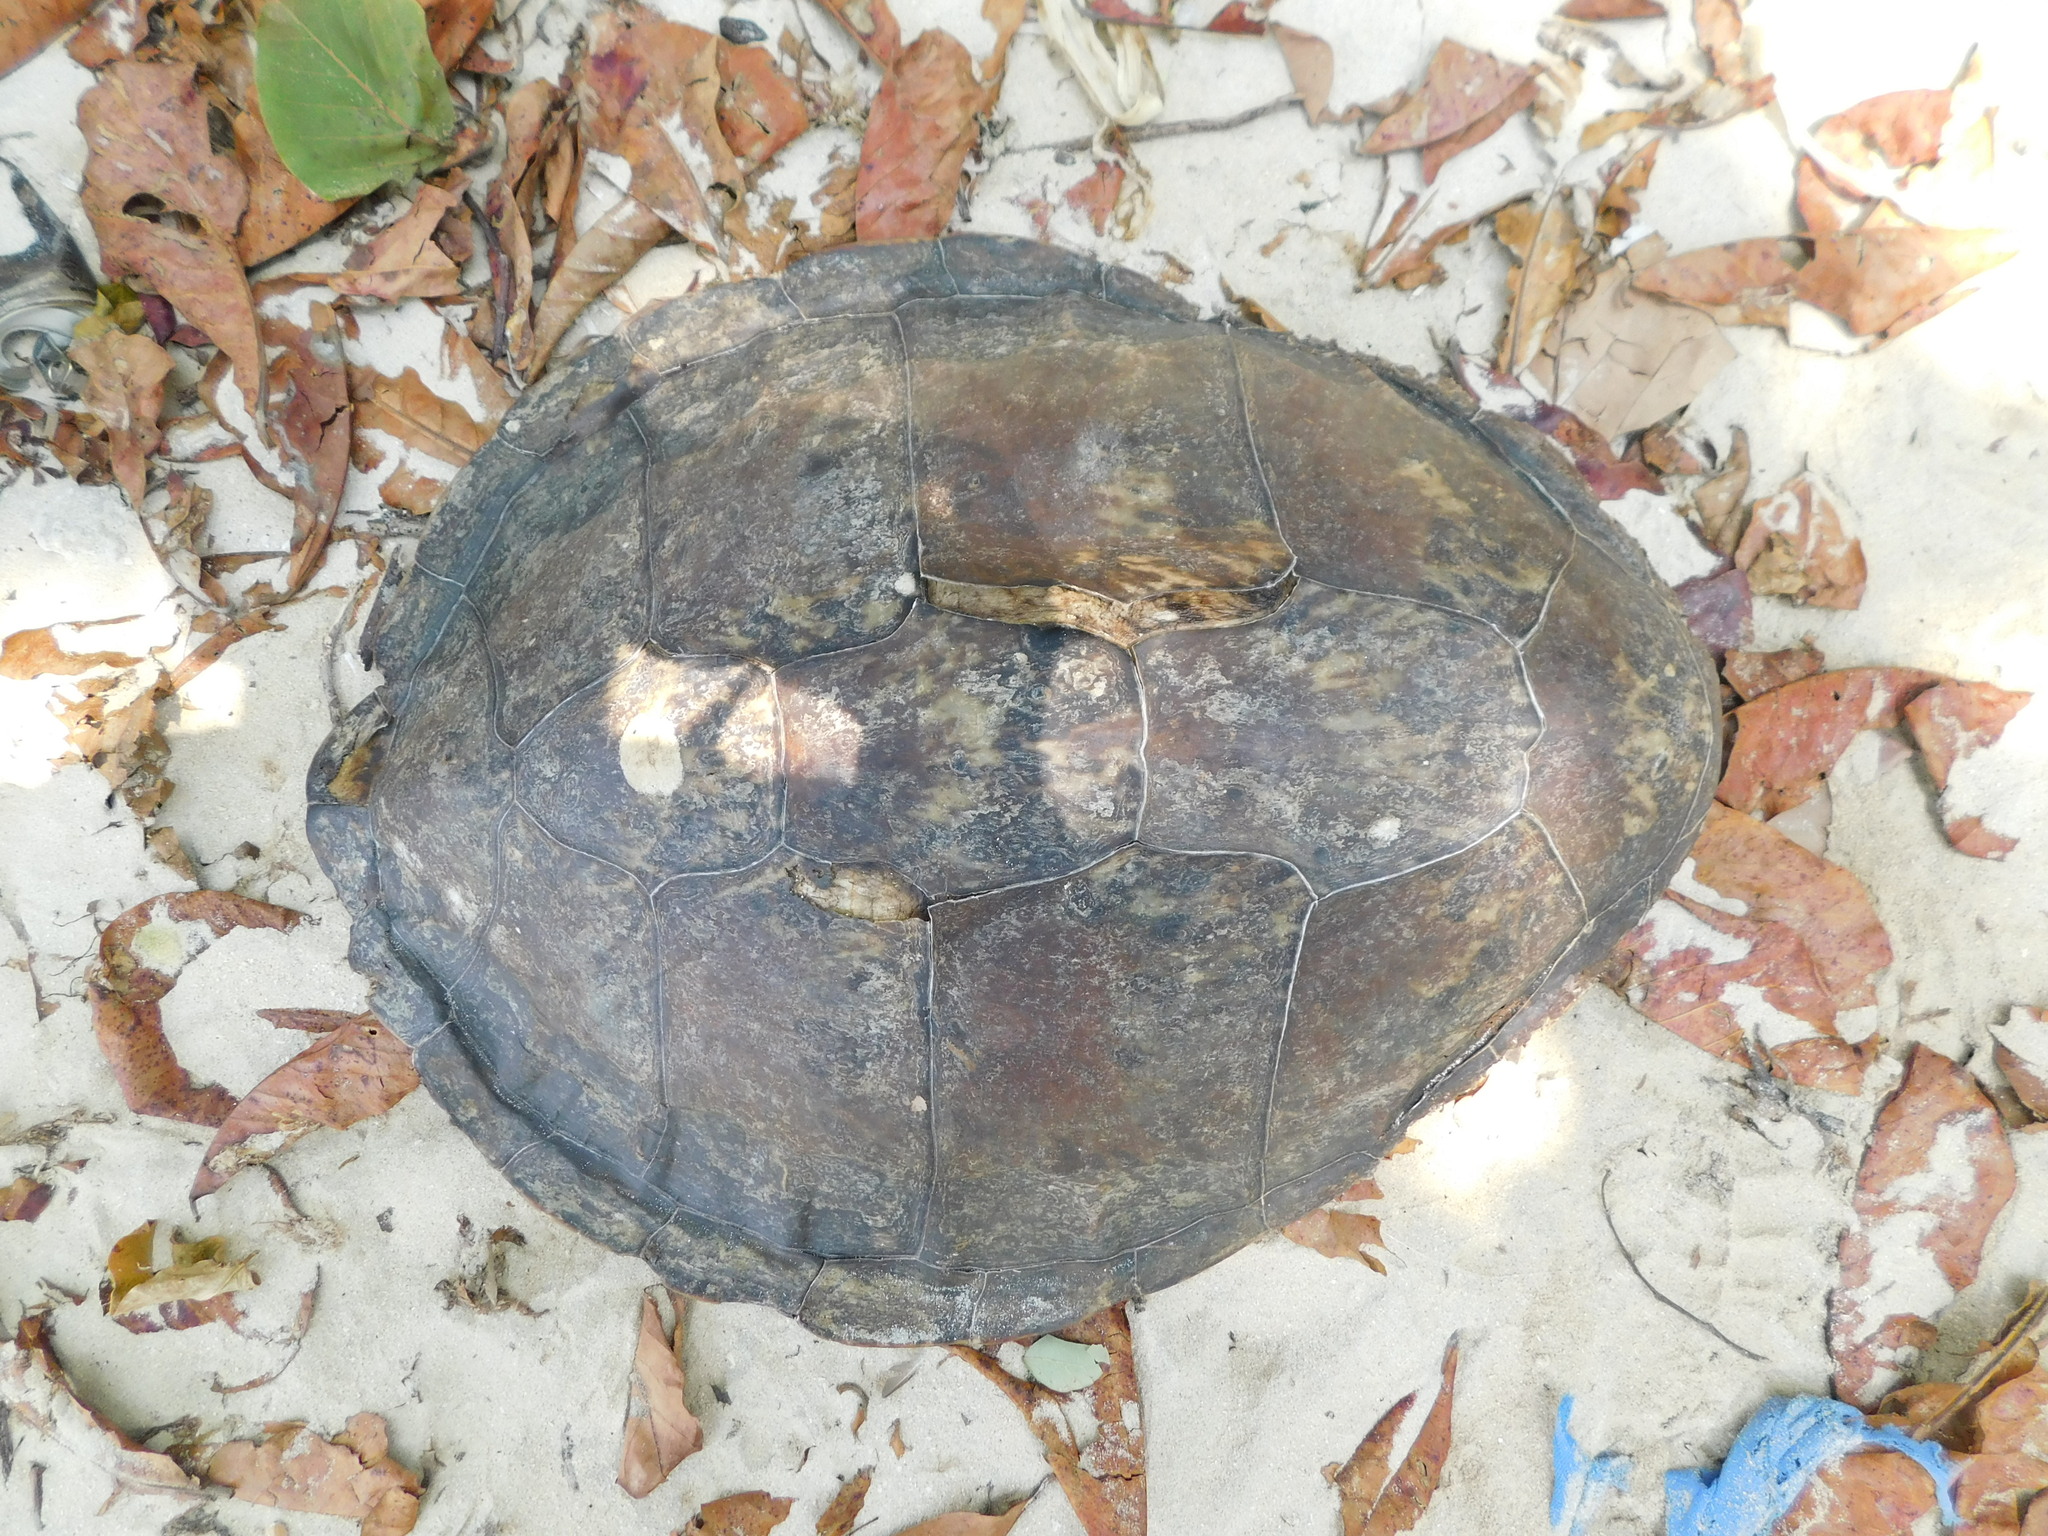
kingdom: Animalia
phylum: Chordata
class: Testudines
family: Cheloniidae
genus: Chelonia
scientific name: Chelonia mydas
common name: Green turtle
